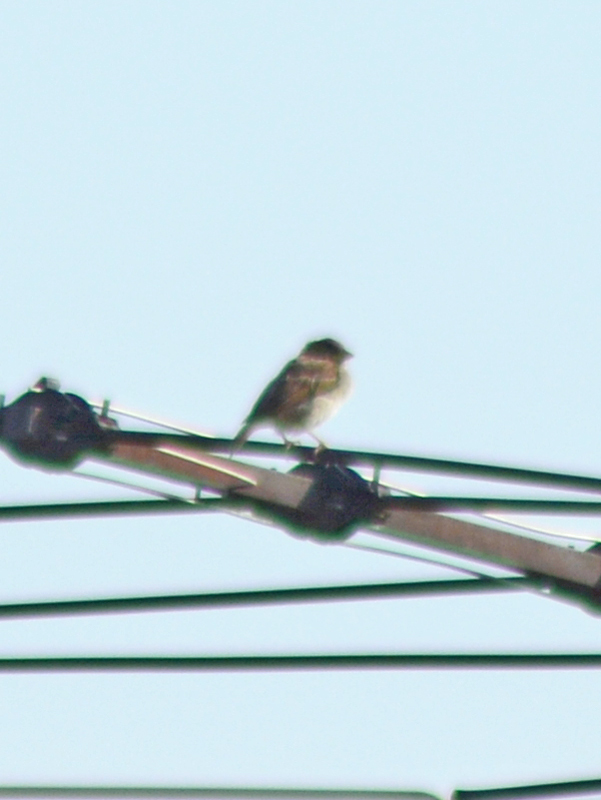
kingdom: Animalia
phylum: Chordata
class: Aves
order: Passeriformes
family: Passeridae
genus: Passer
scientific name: Passer domesticus
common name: House sparrow
